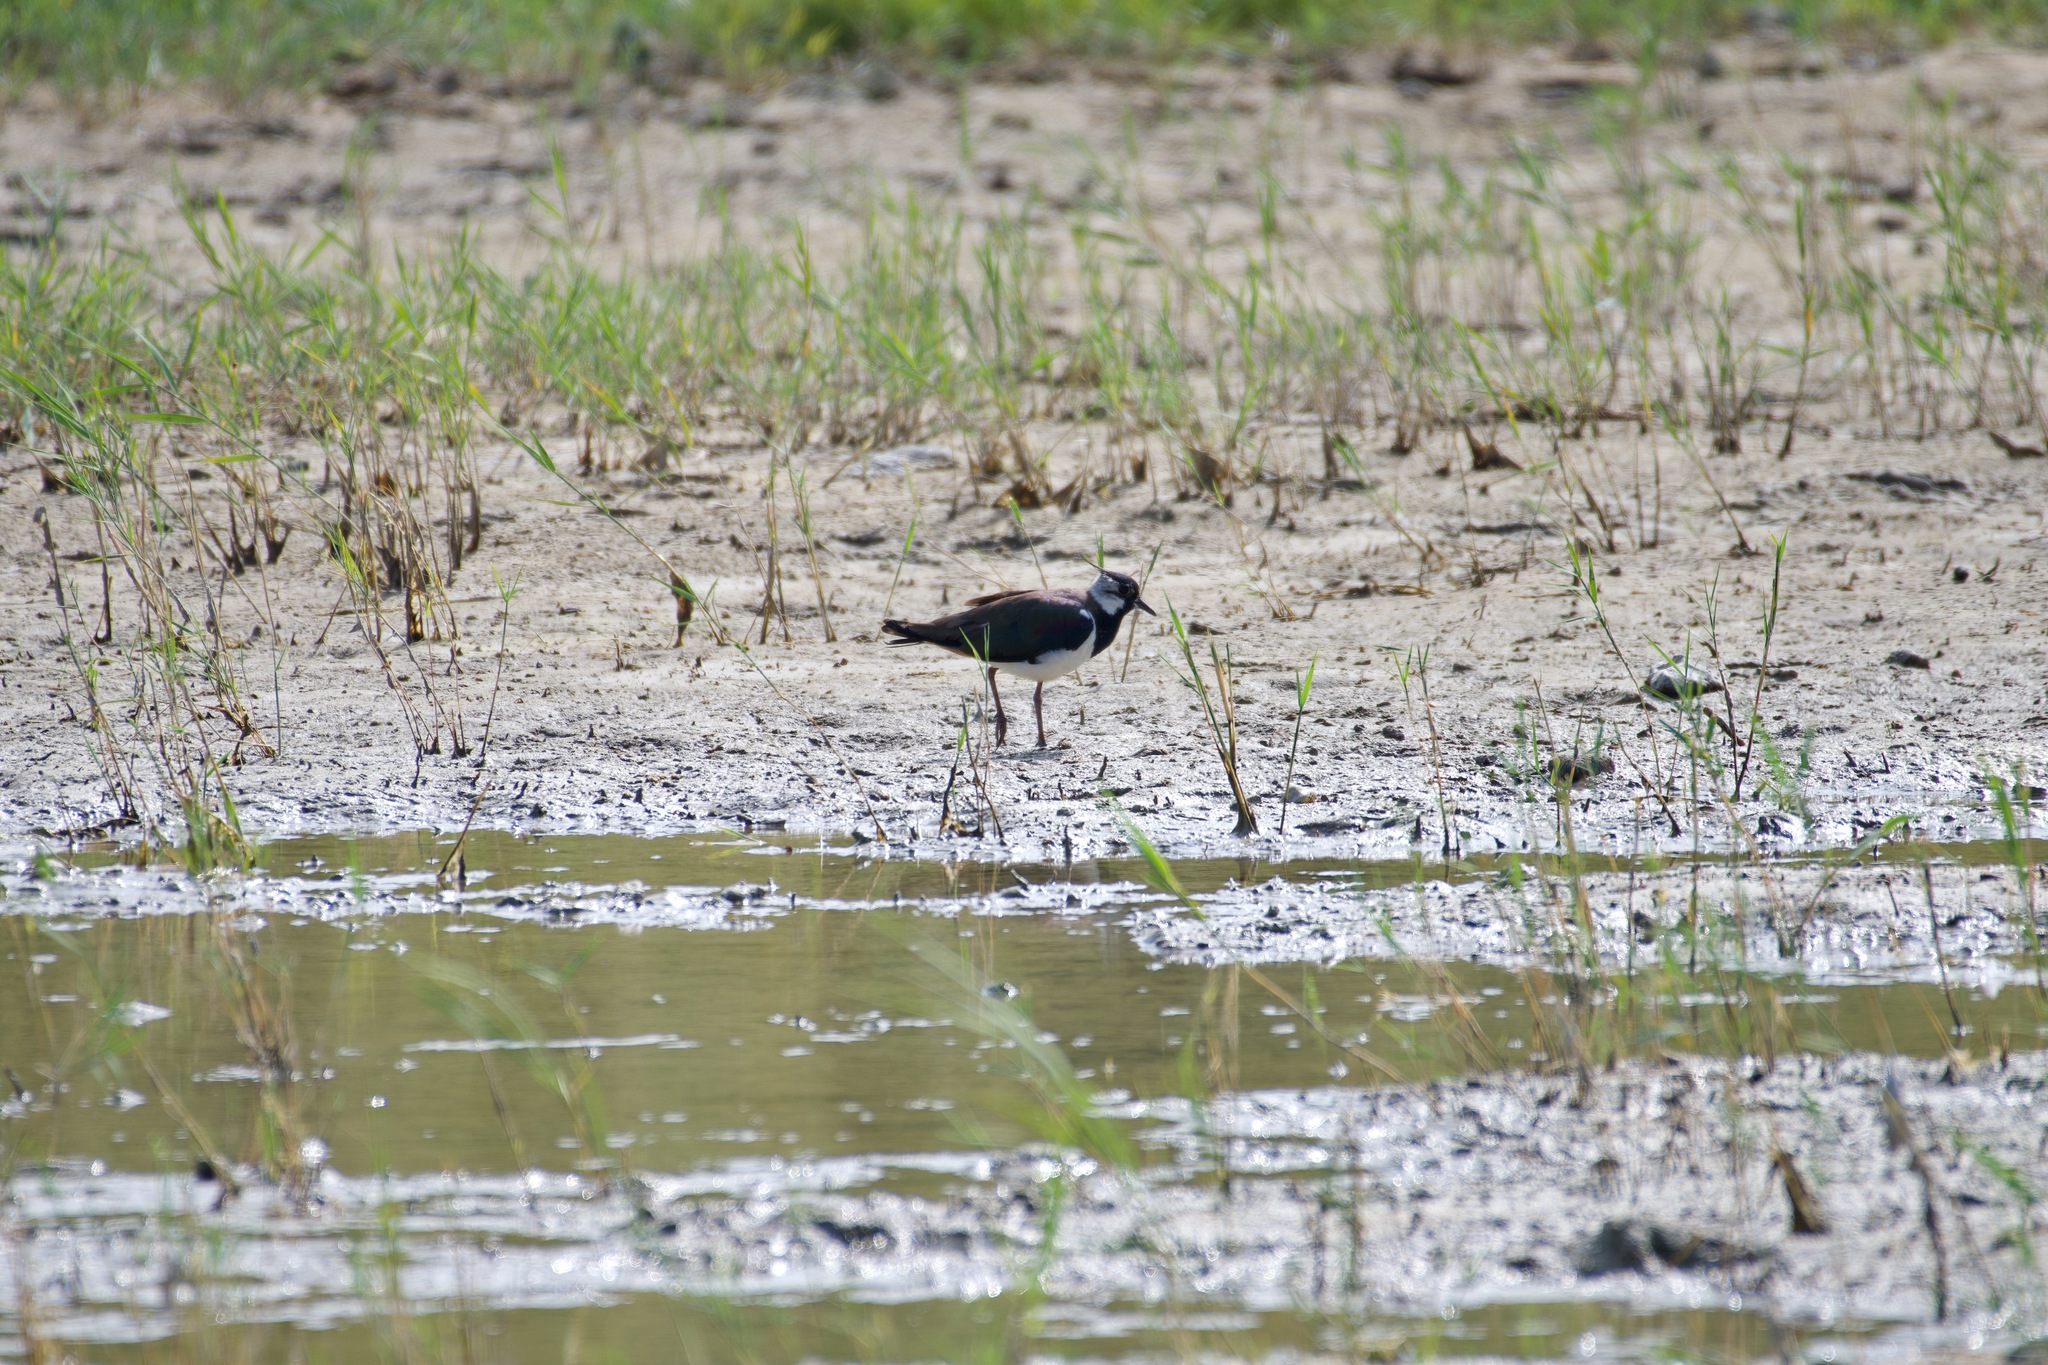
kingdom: Animalia
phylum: Chordata
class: Aves
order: Charadriiformes
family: Charadriidae
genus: Vanellus
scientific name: Vanellus vanellus
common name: Northern lapwing
